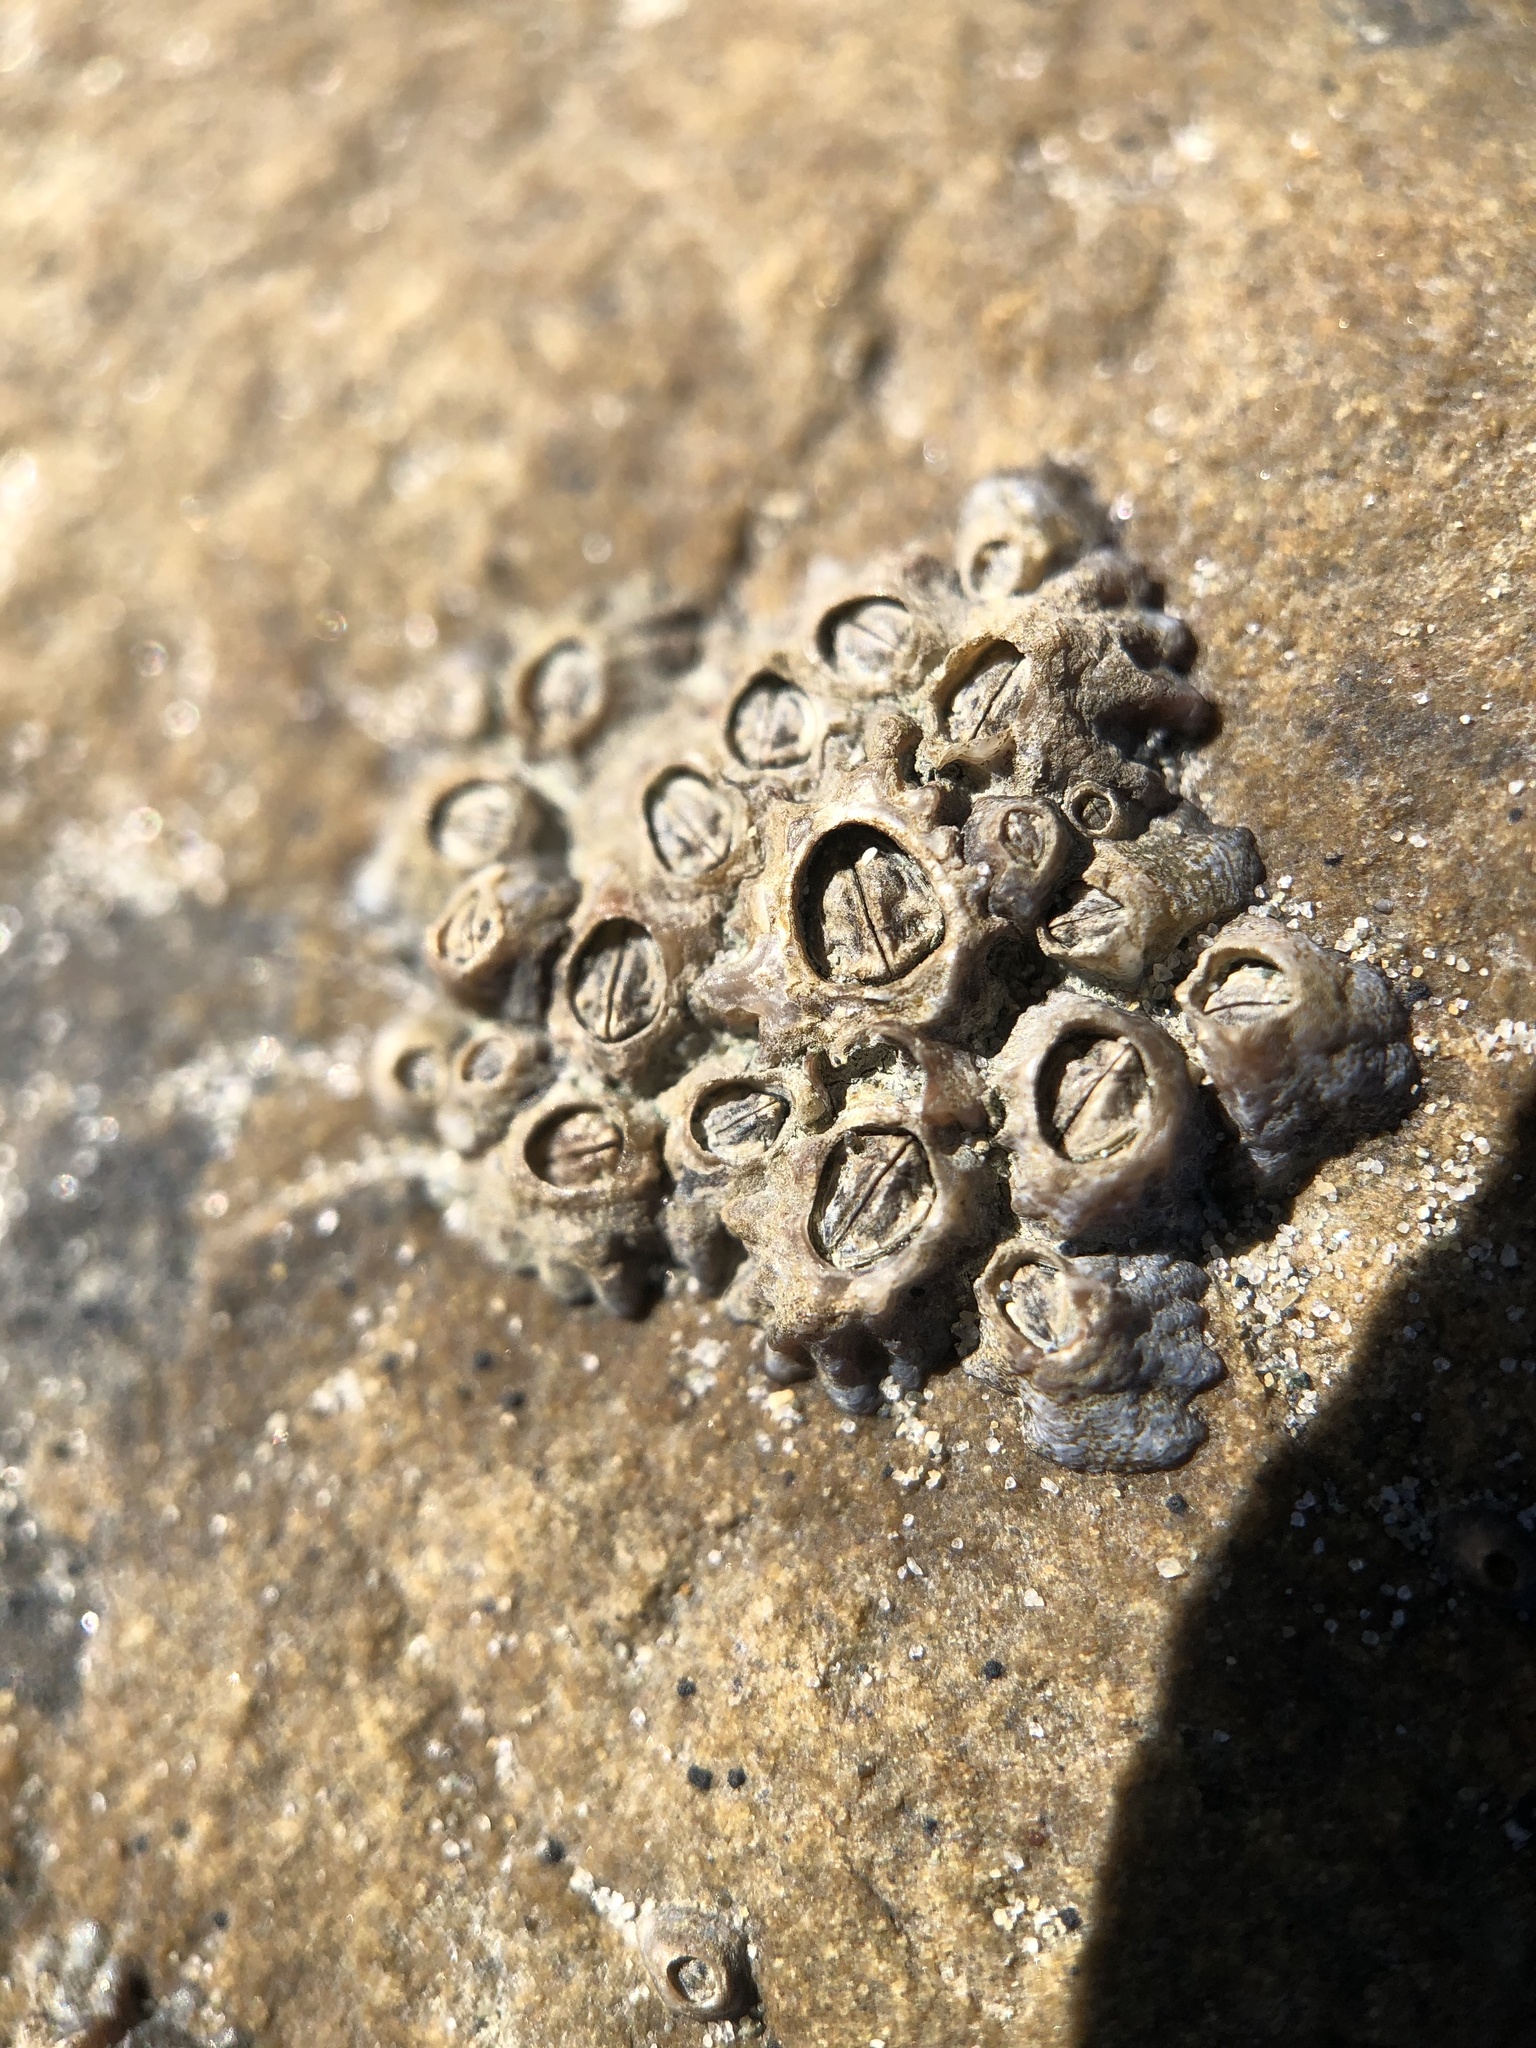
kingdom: Animalia
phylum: Arthropoda
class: Maxillopoda
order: Sessilia
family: Chthamalidae
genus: Chamaesipho
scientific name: Chamaesipho columna
